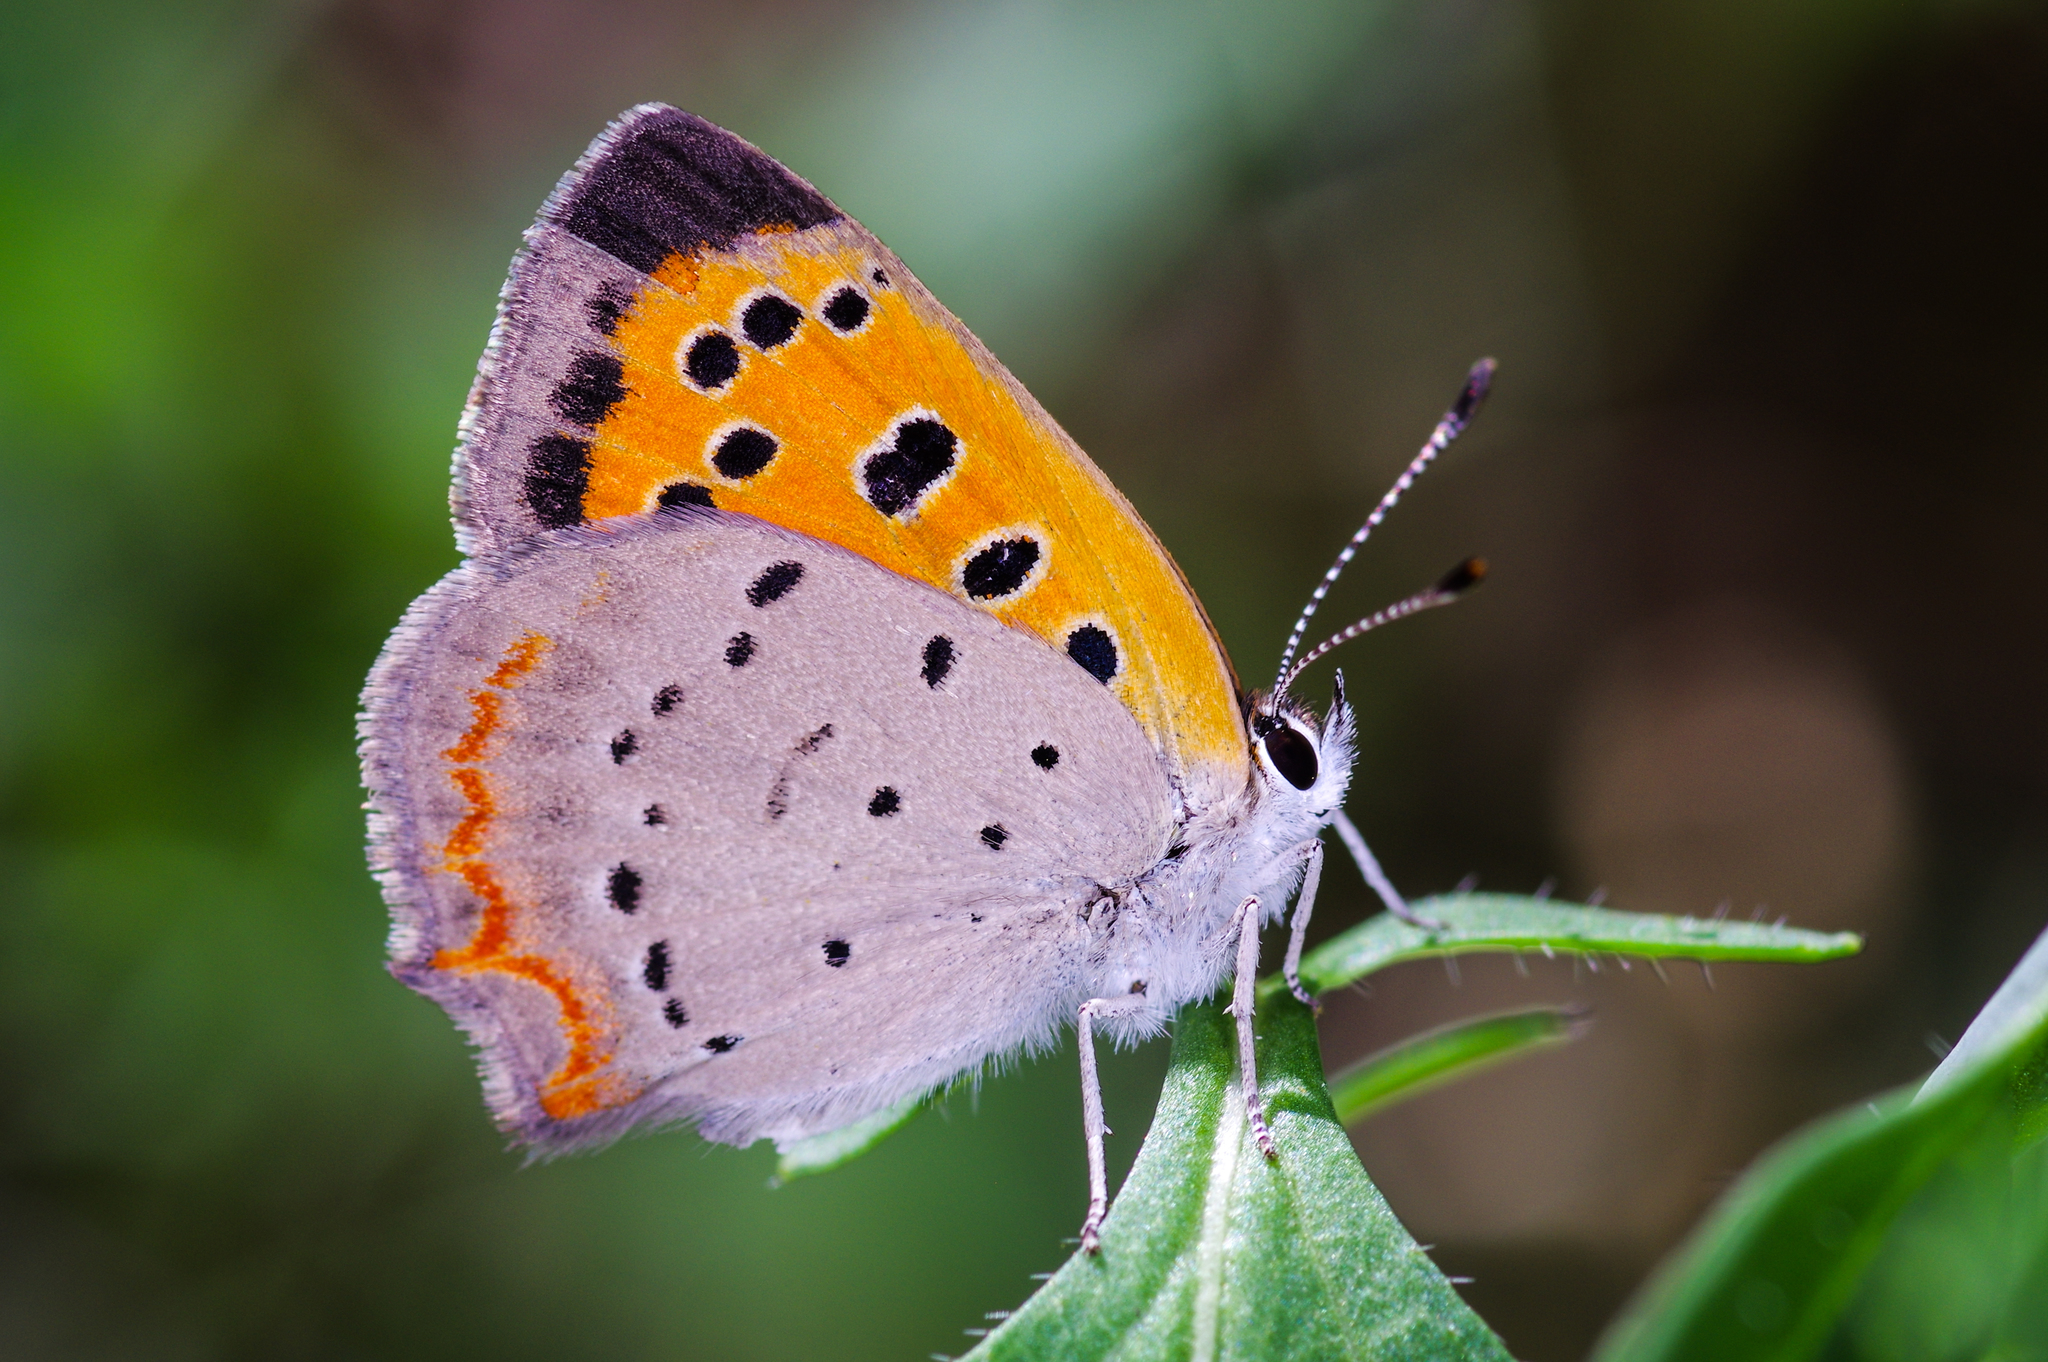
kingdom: Animalia
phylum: Arthropoda
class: Insecta
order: Lepidoptera
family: Lycaenidae
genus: Lycaena
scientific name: Lycaena hypophlaeas
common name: American copper
